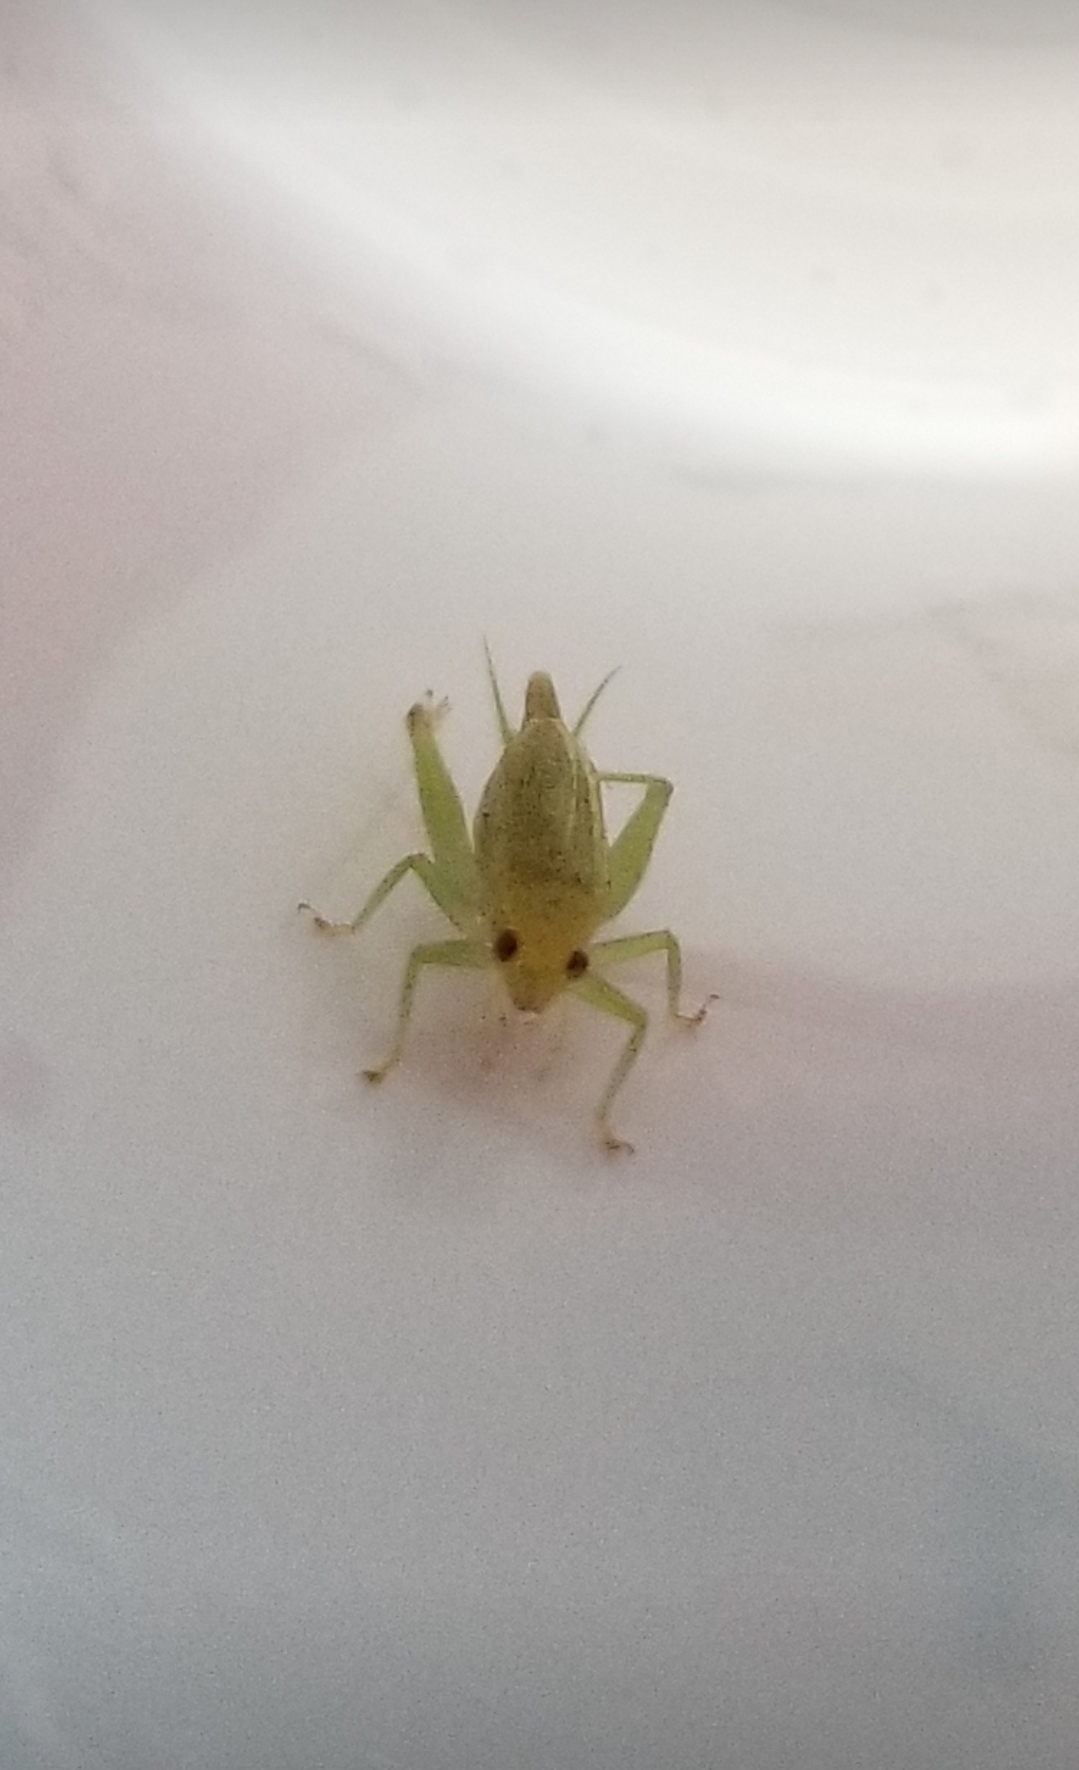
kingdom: Animalia
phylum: Arthropoda
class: Insecta
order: Orthoptera
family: Trigonidiidae
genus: Cyrtoxipha
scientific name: Cyrtoxipha columbiana
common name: Columbian trig
